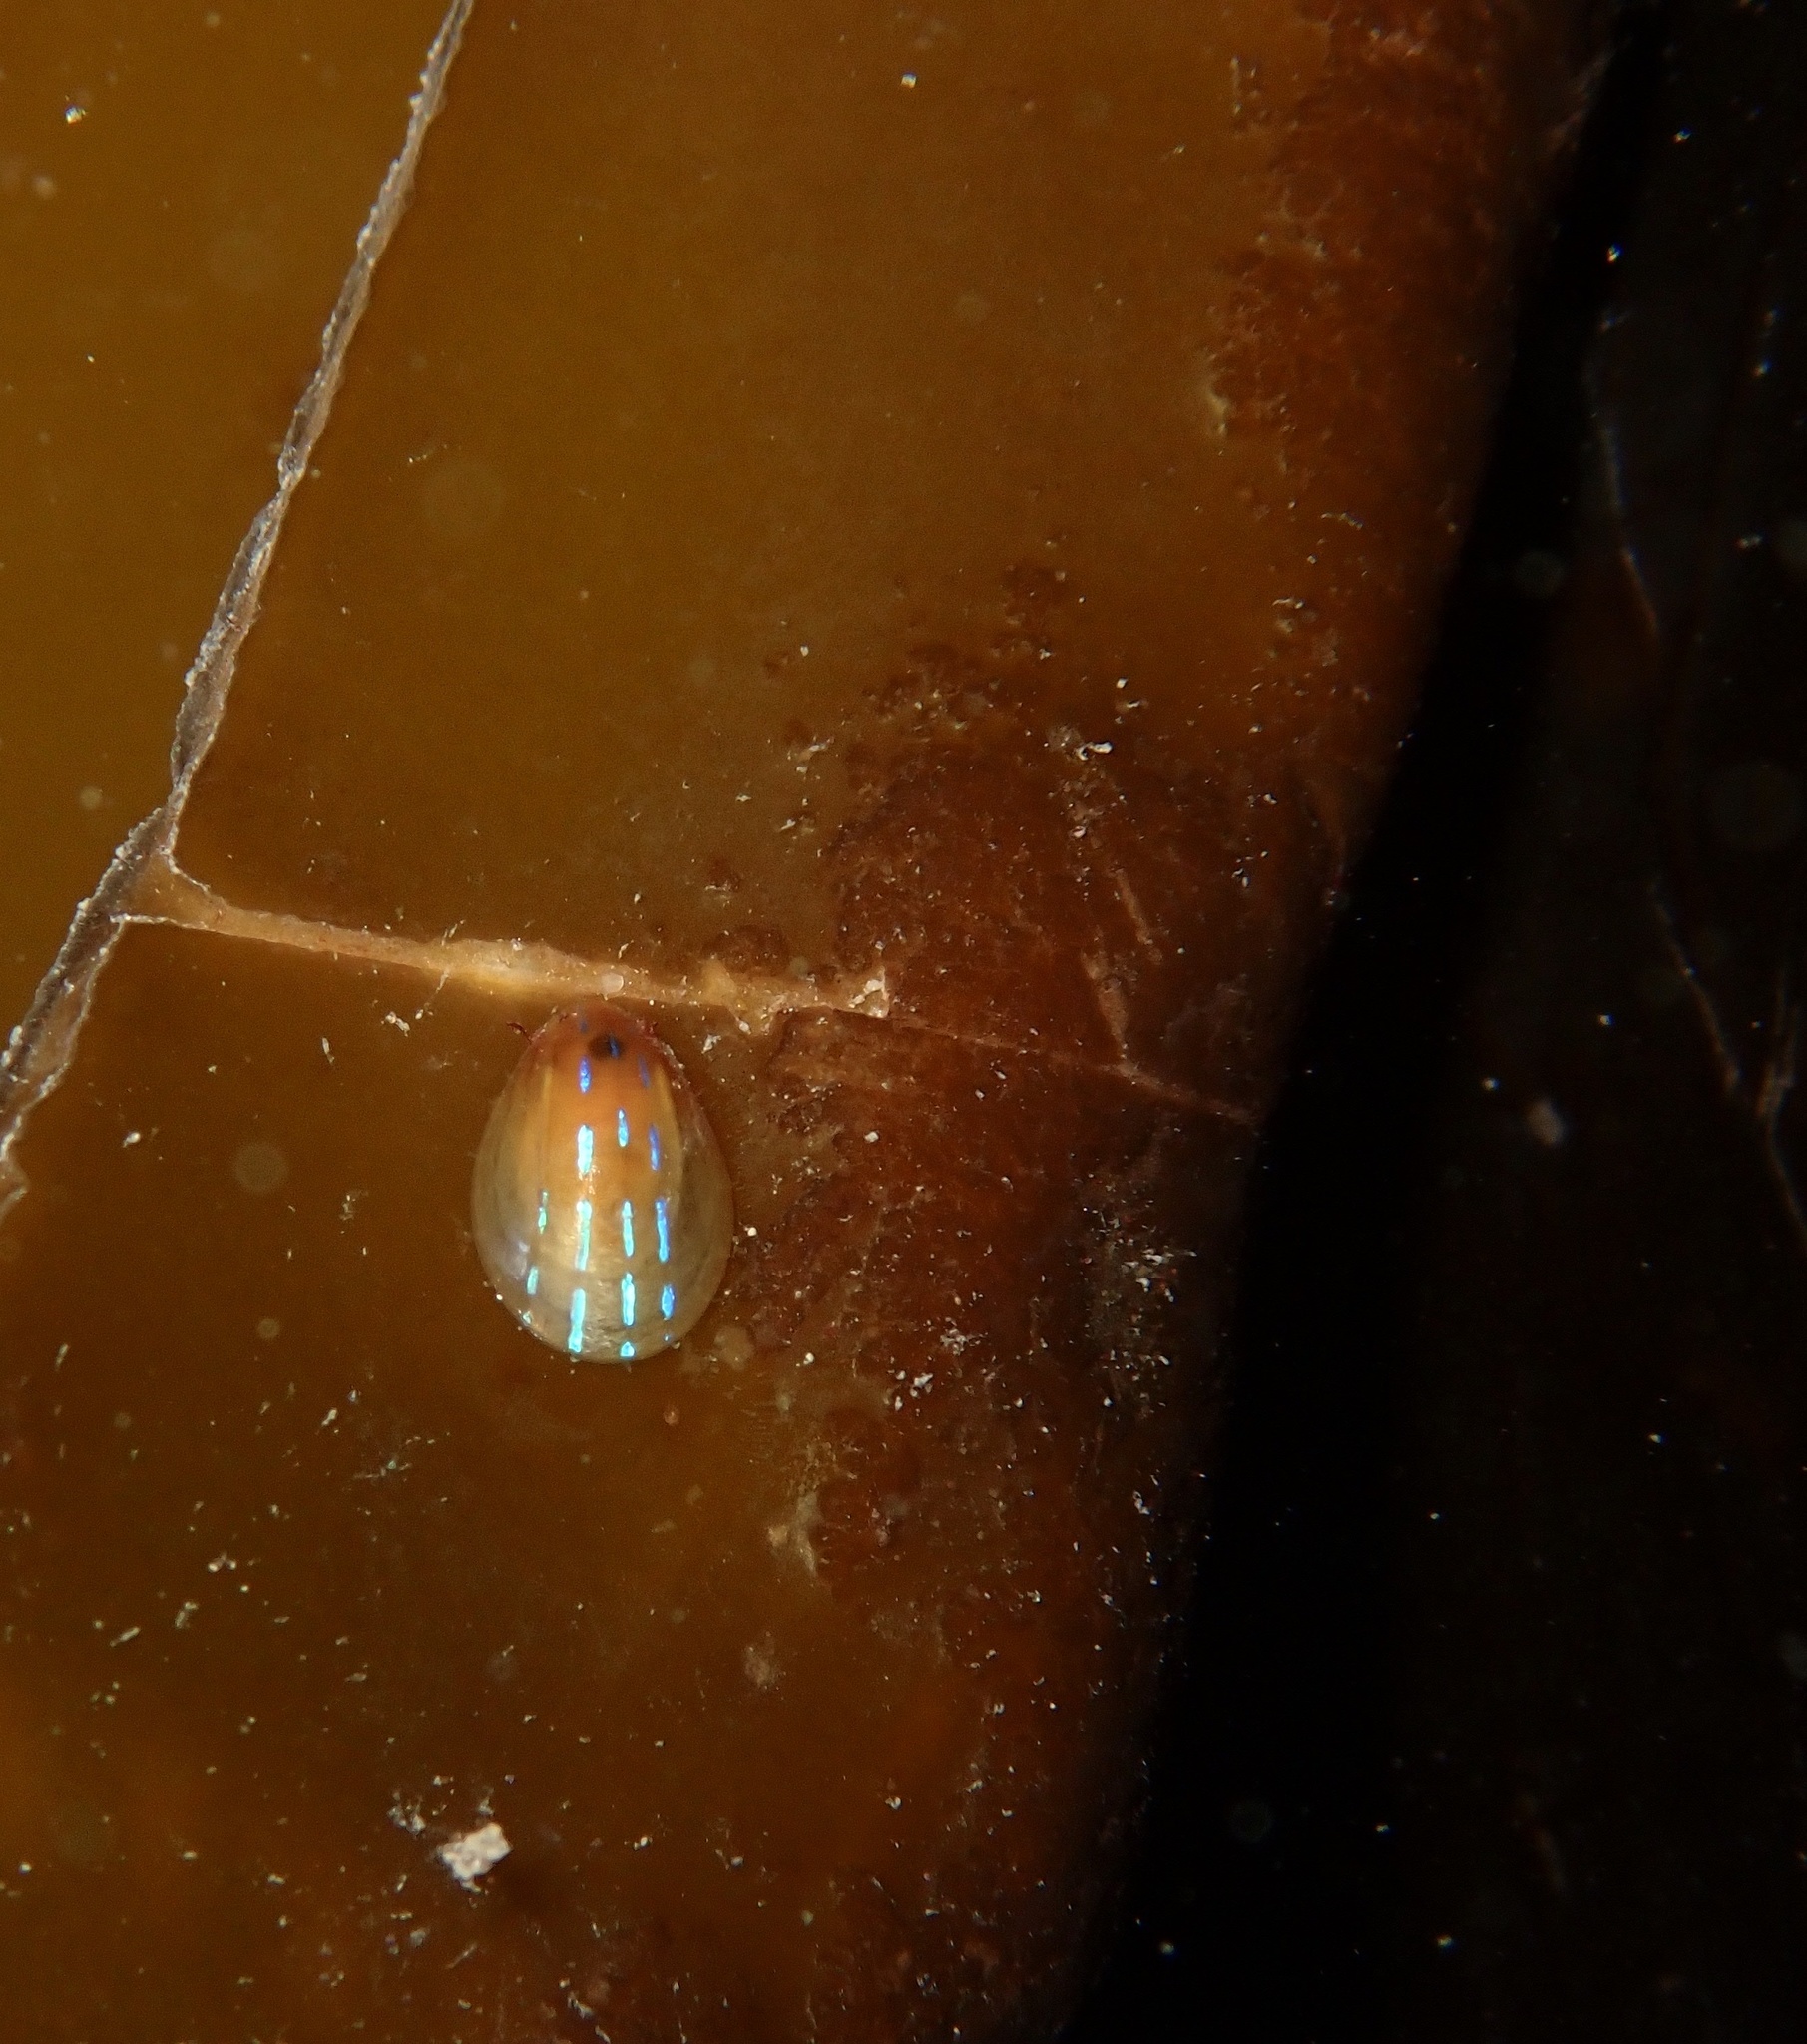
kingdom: Animalia
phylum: Mollusca
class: Gastropoda
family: Patellidae
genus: Patella
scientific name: Patella pellucida
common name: Blue-rayed limpet
